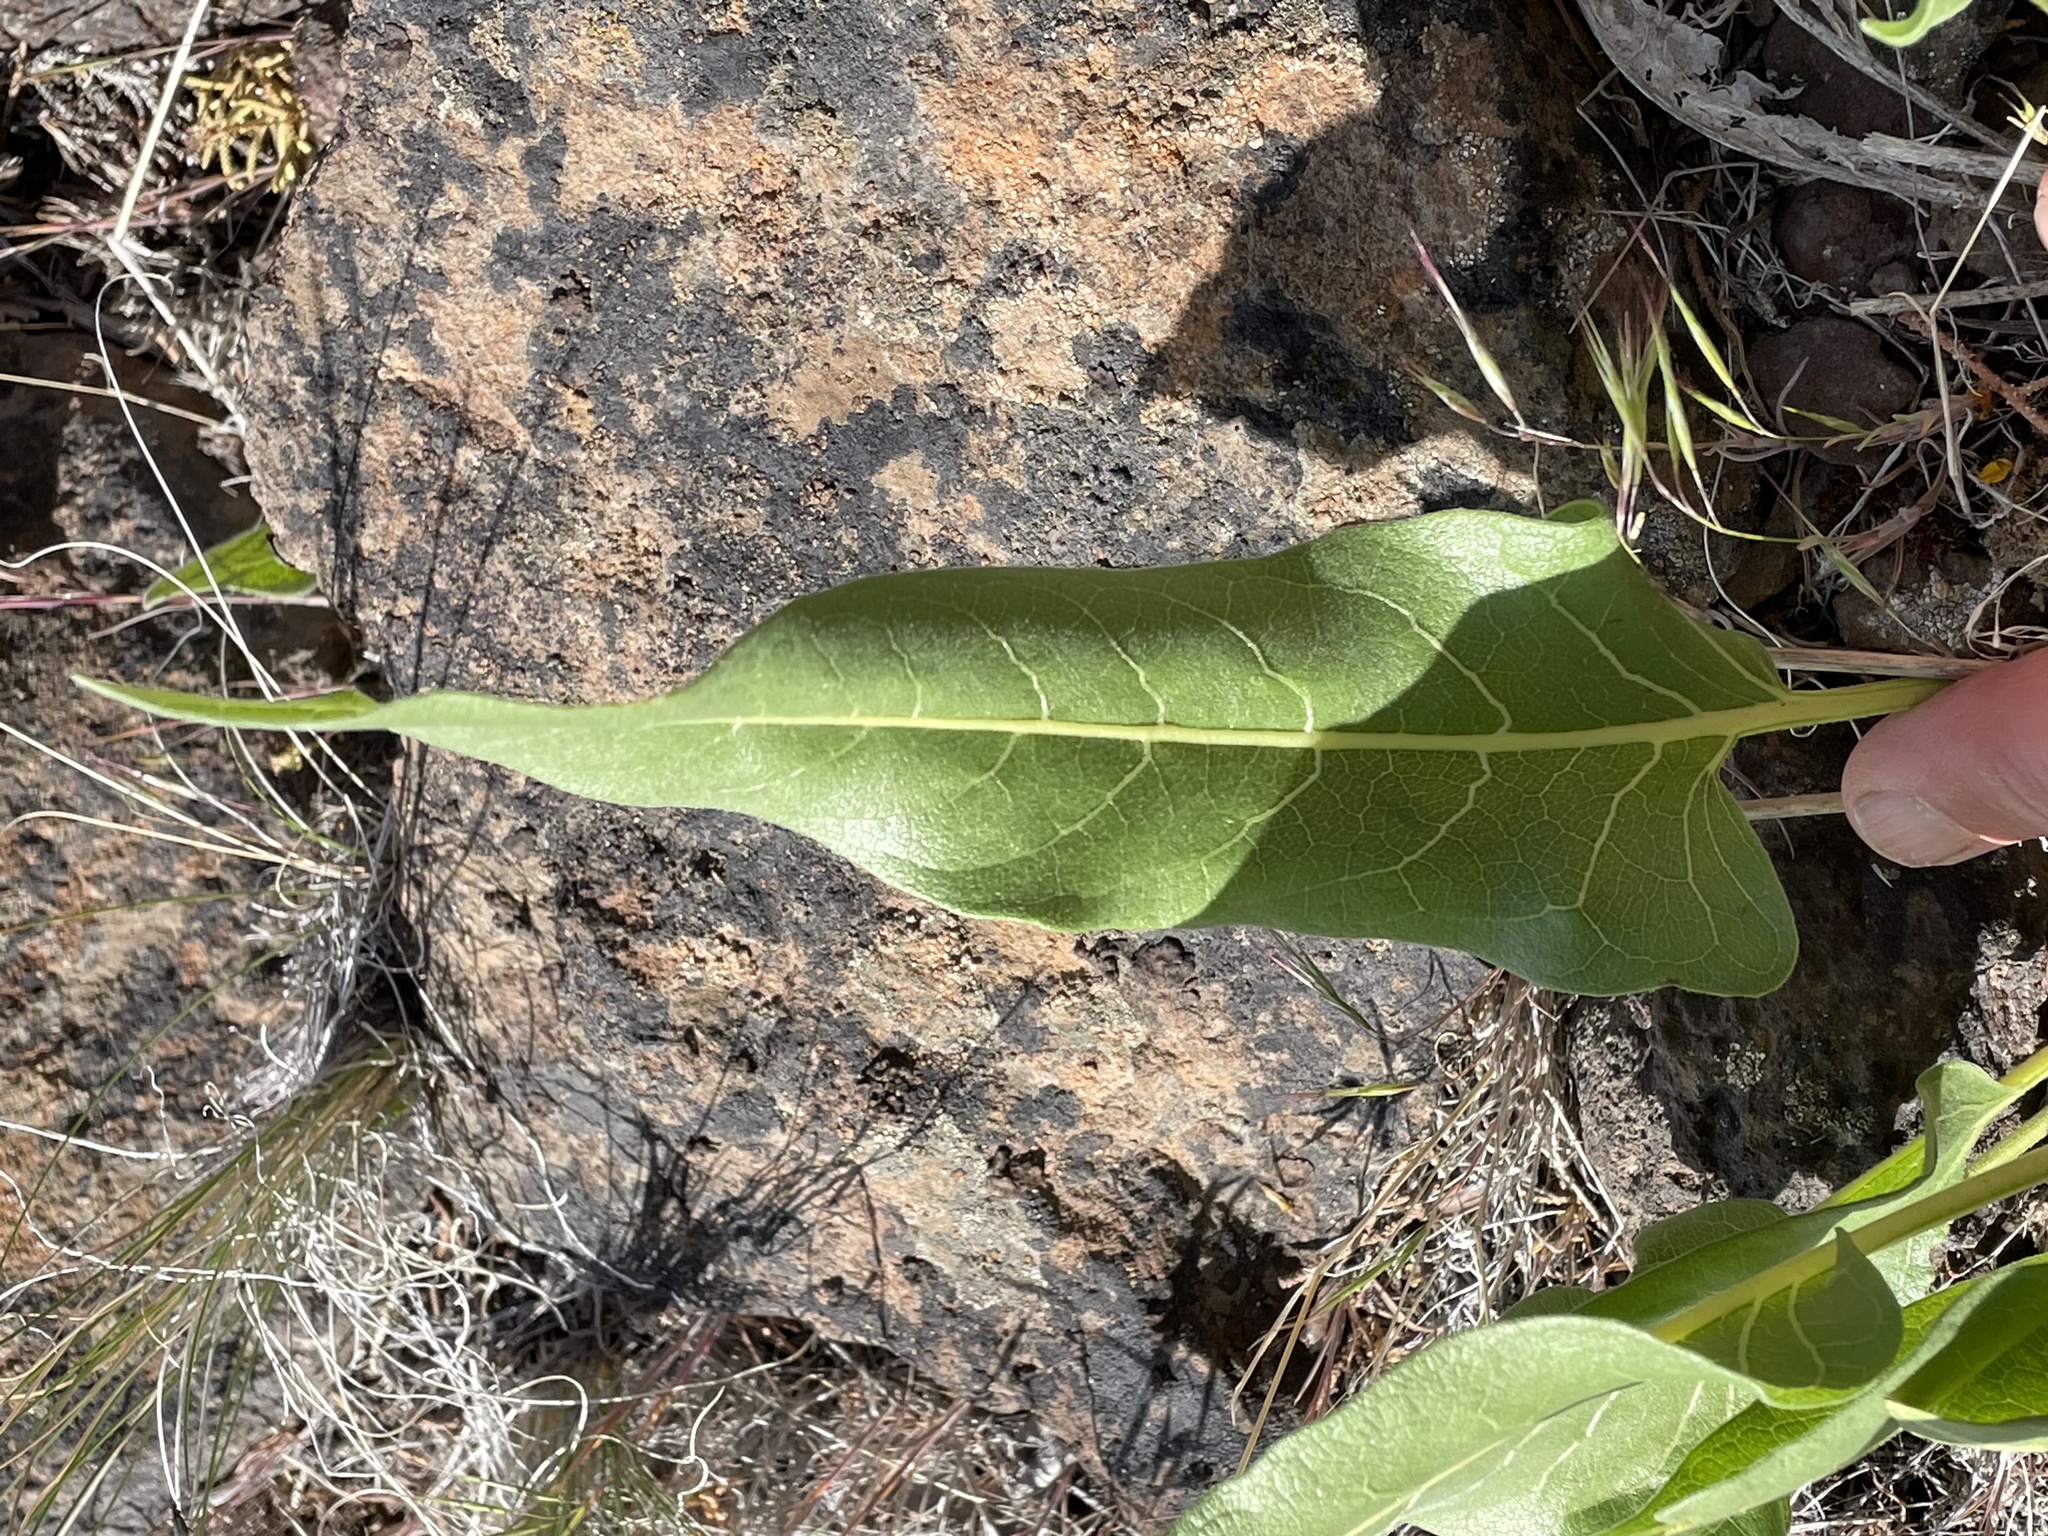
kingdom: Plantae
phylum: Tracheophyta
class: Magnoliopsida
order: Asterales
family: Asteraceae
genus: Balsamorhiza
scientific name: Balsamorhiza careyana
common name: Carey's balsamroot
